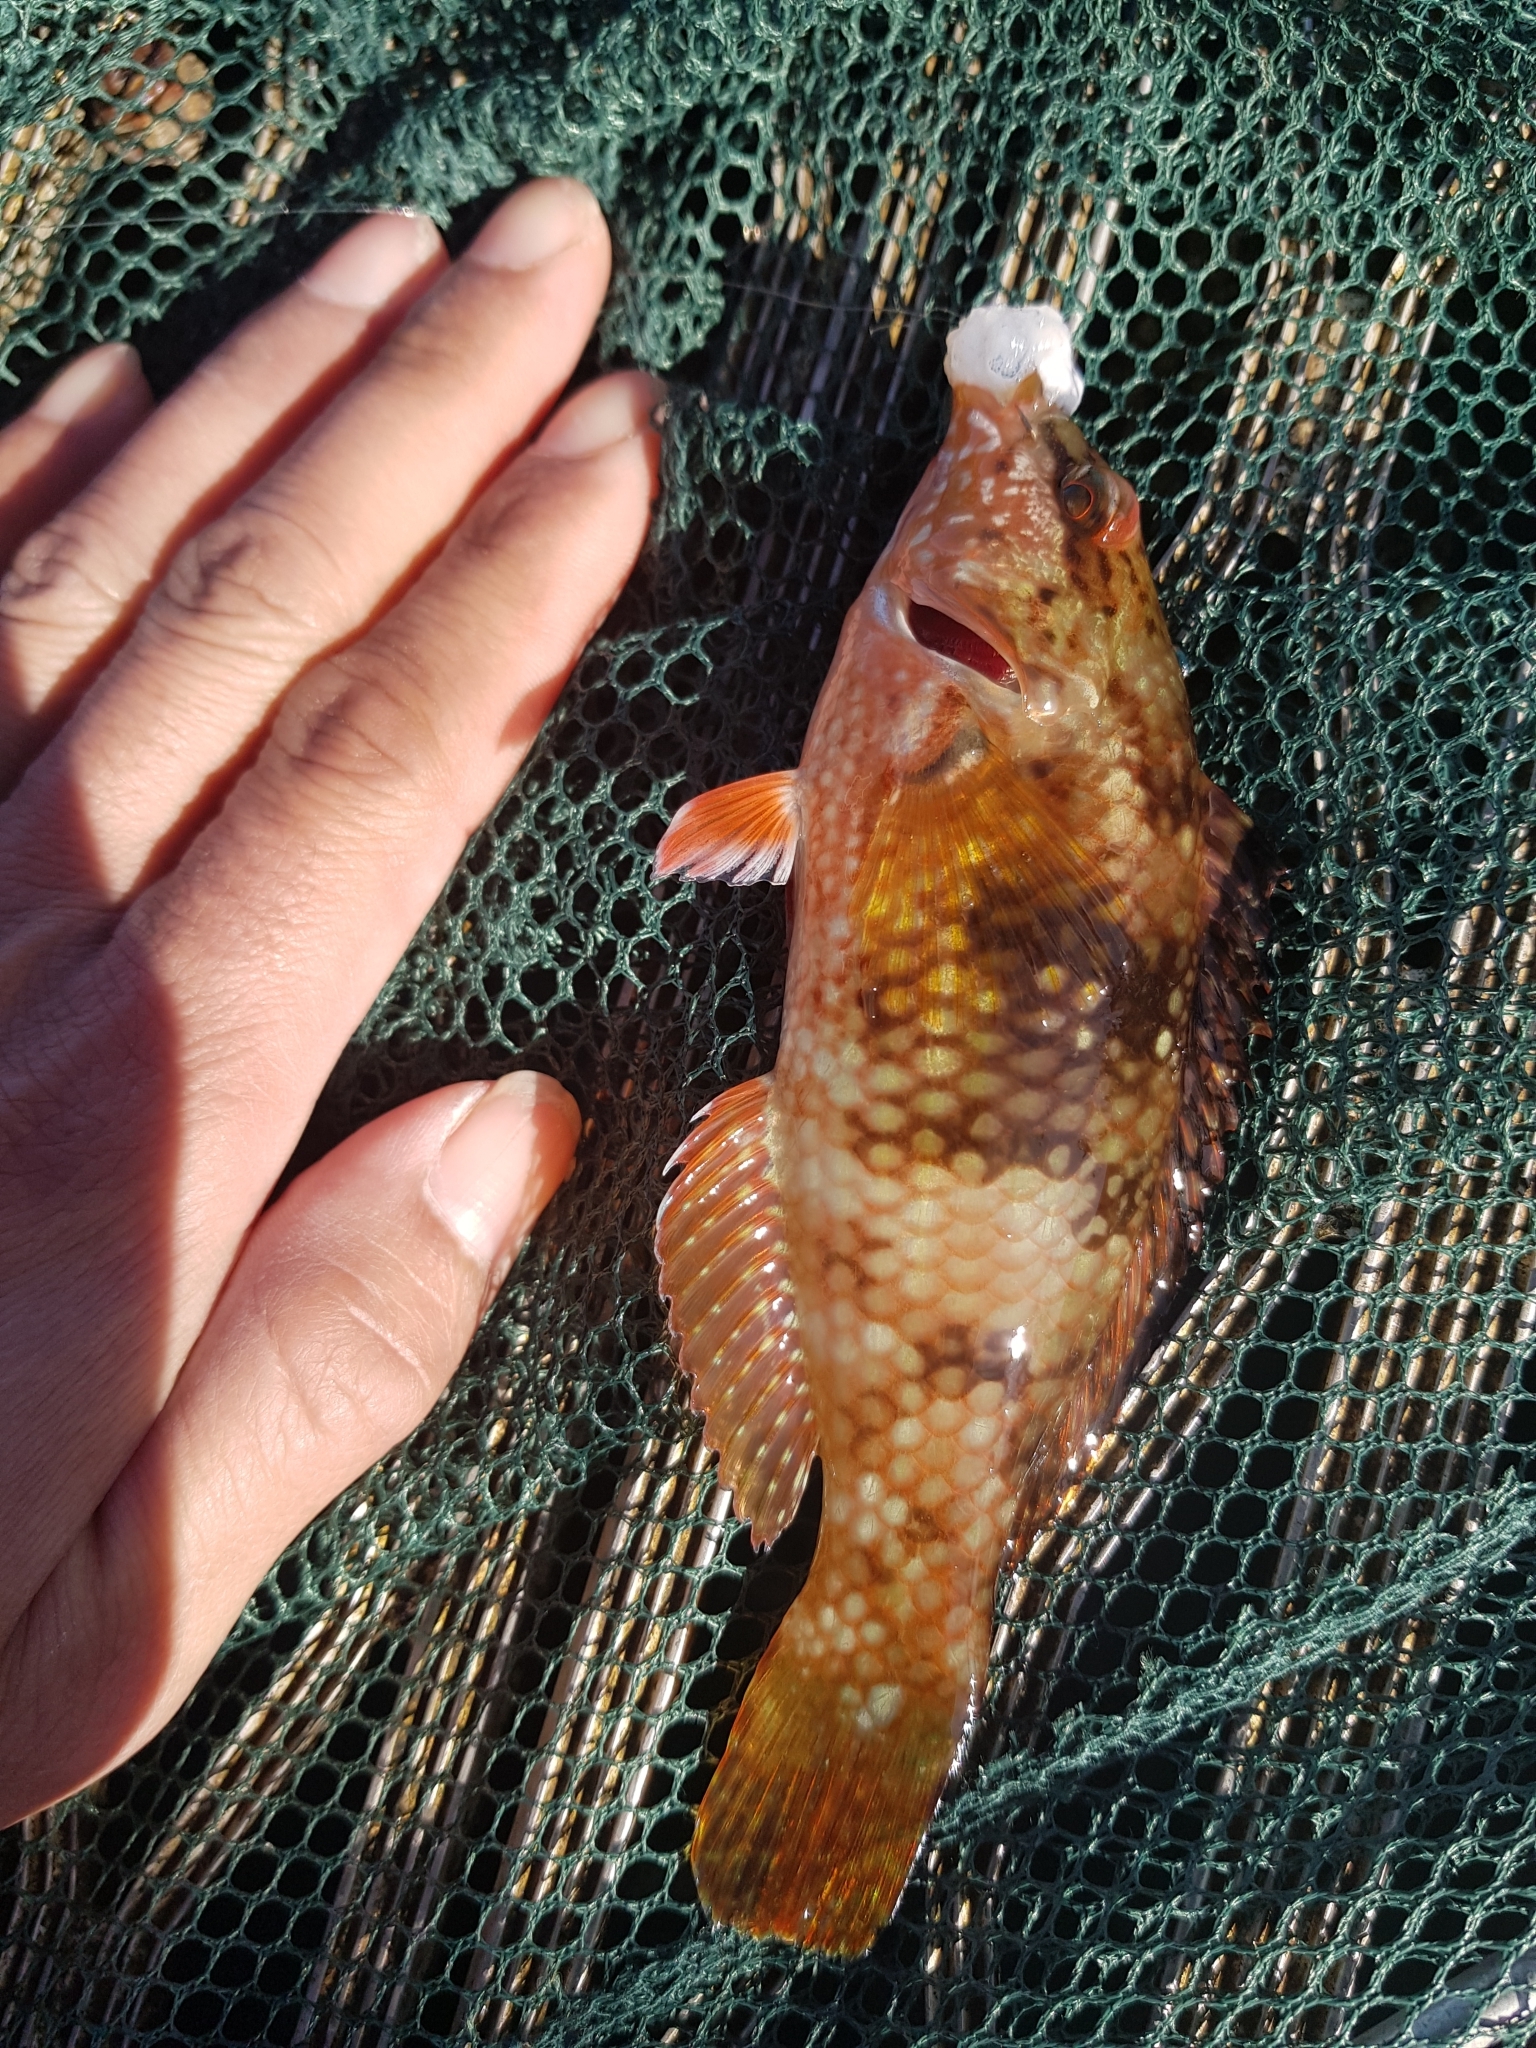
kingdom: Animalia
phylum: Chordata
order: Perciformes
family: Labridae
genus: Notolabrus
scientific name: Notolabrus tetricus
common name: Blue-throated parrotfish
